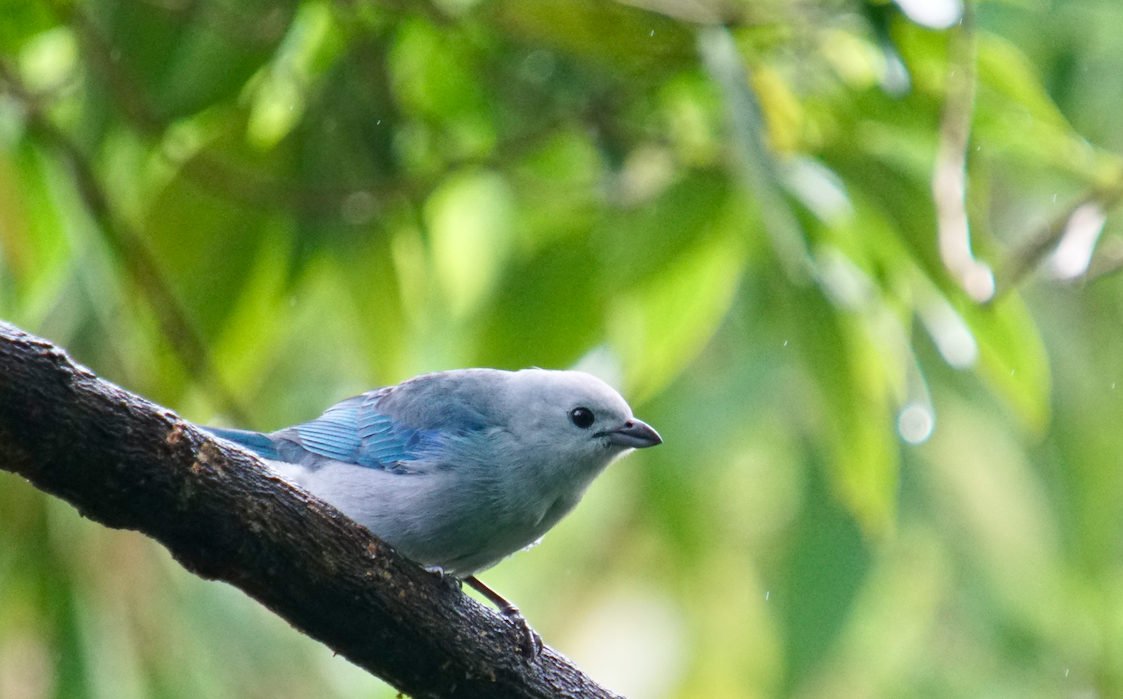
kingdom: Animalia
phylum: Chordata
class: Aves
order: Passeriformes
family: Thraupidae
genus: Thraupis
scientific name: Thraupis episcopus
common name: Blue-grey tanager
